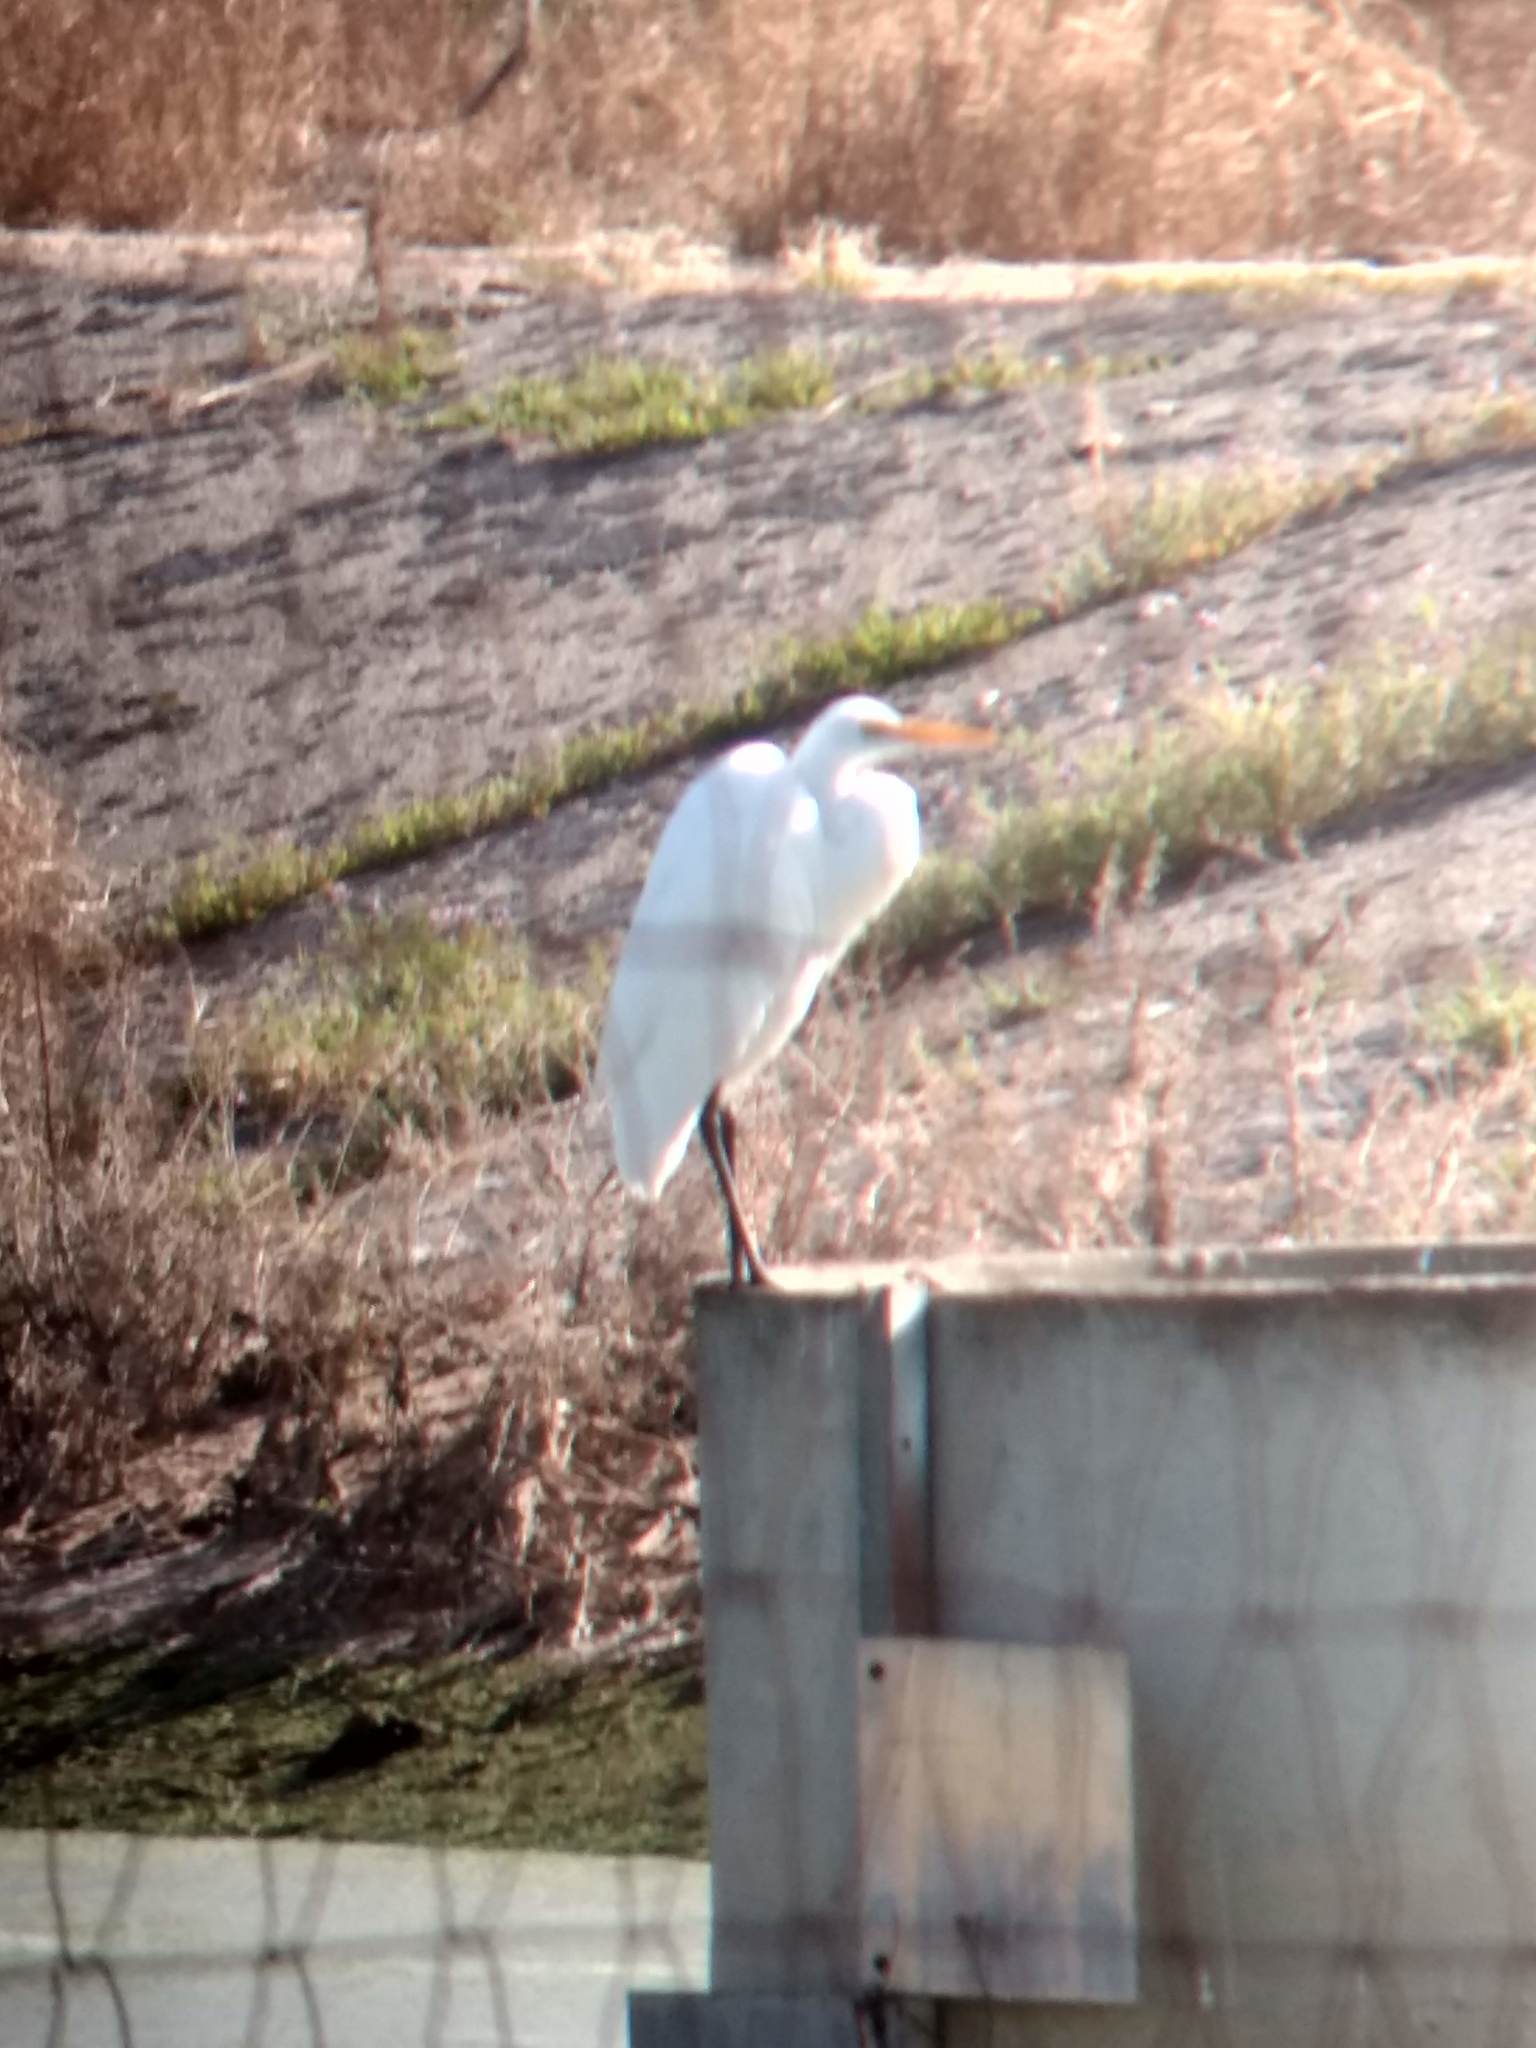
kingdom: Animalia
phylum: Chordata
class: Aves
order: Pelecaniformes
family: Ardeidae
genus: Ardea
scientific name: Ardea alba
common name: Great egret
